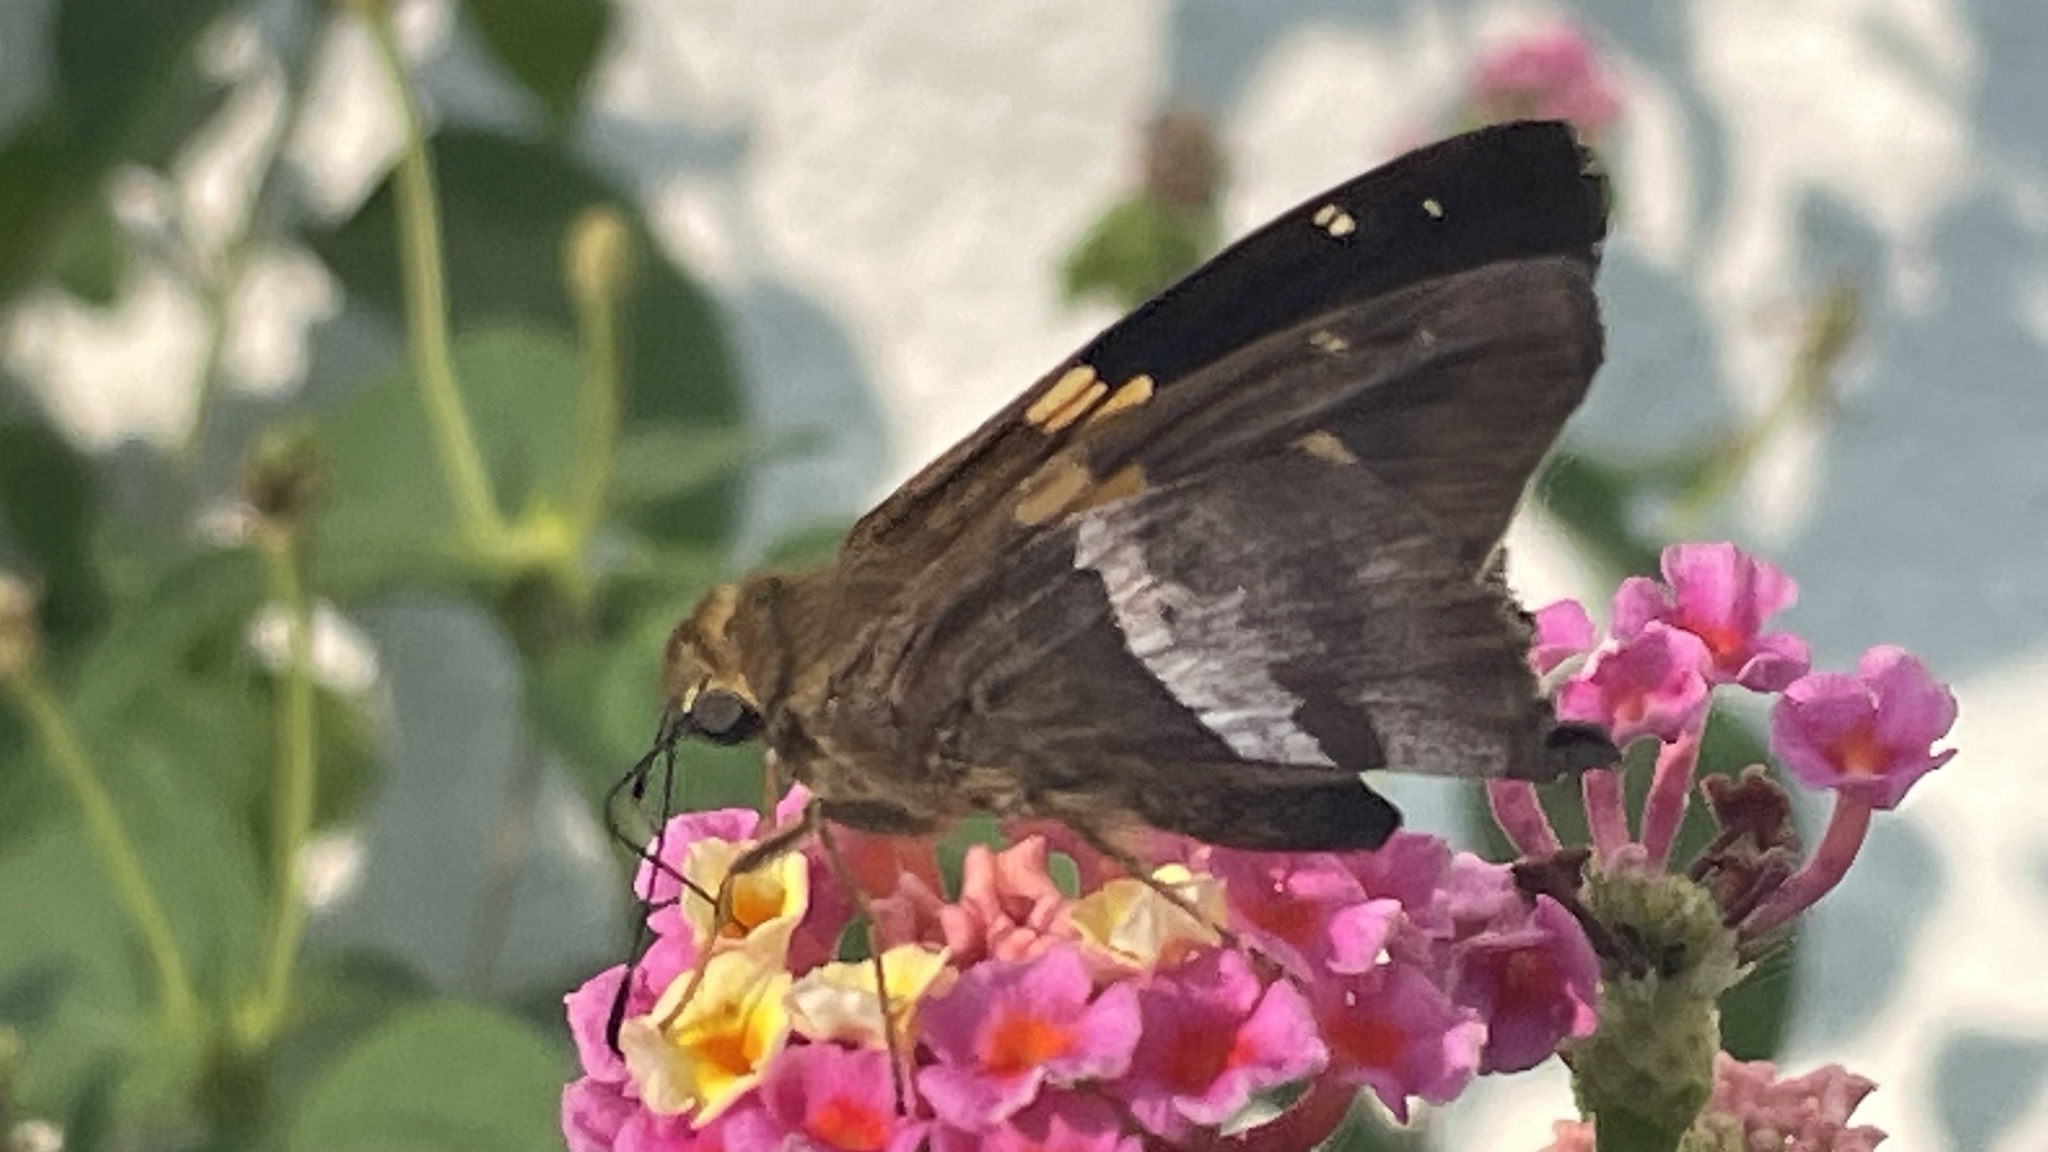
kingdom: Animalia
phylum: Arthropoda
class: Insecta
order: Lepidoptera
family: Hesperiidae
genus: Aguna
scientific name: Aguna asander
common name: Gold-spotted aguna
